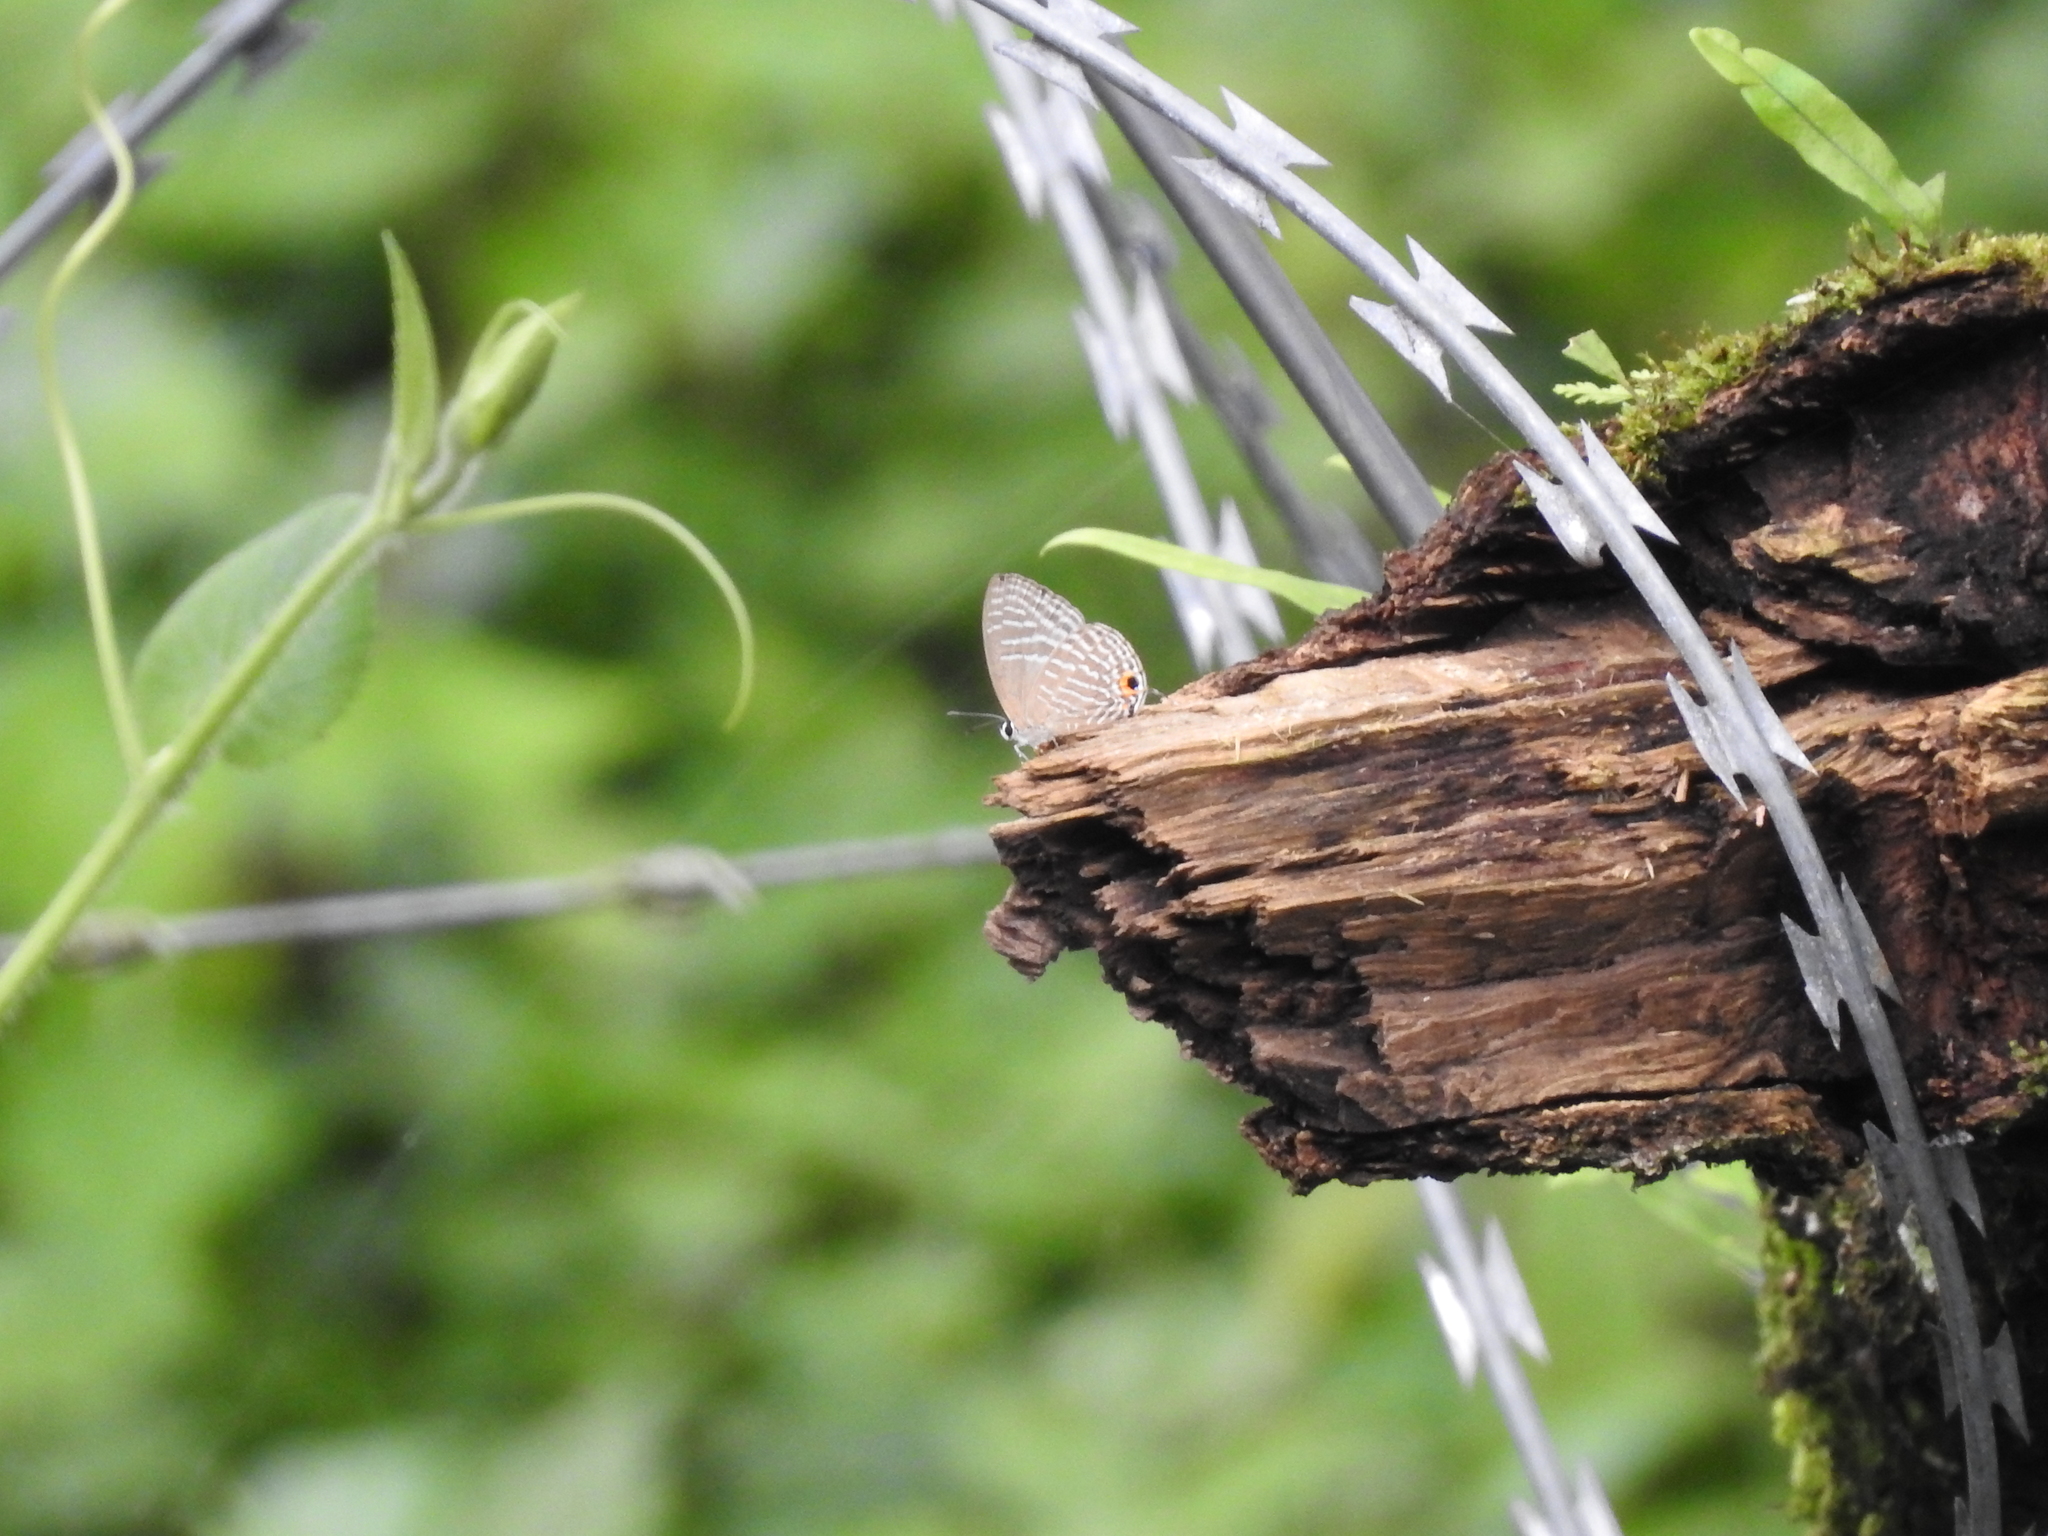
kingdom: Animalia
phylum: Arthropoda
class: Insecta
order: Lepidoptera
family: Lycaenidae
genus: Jamides
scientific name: Jamides alecto
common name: Metallic cerulean
